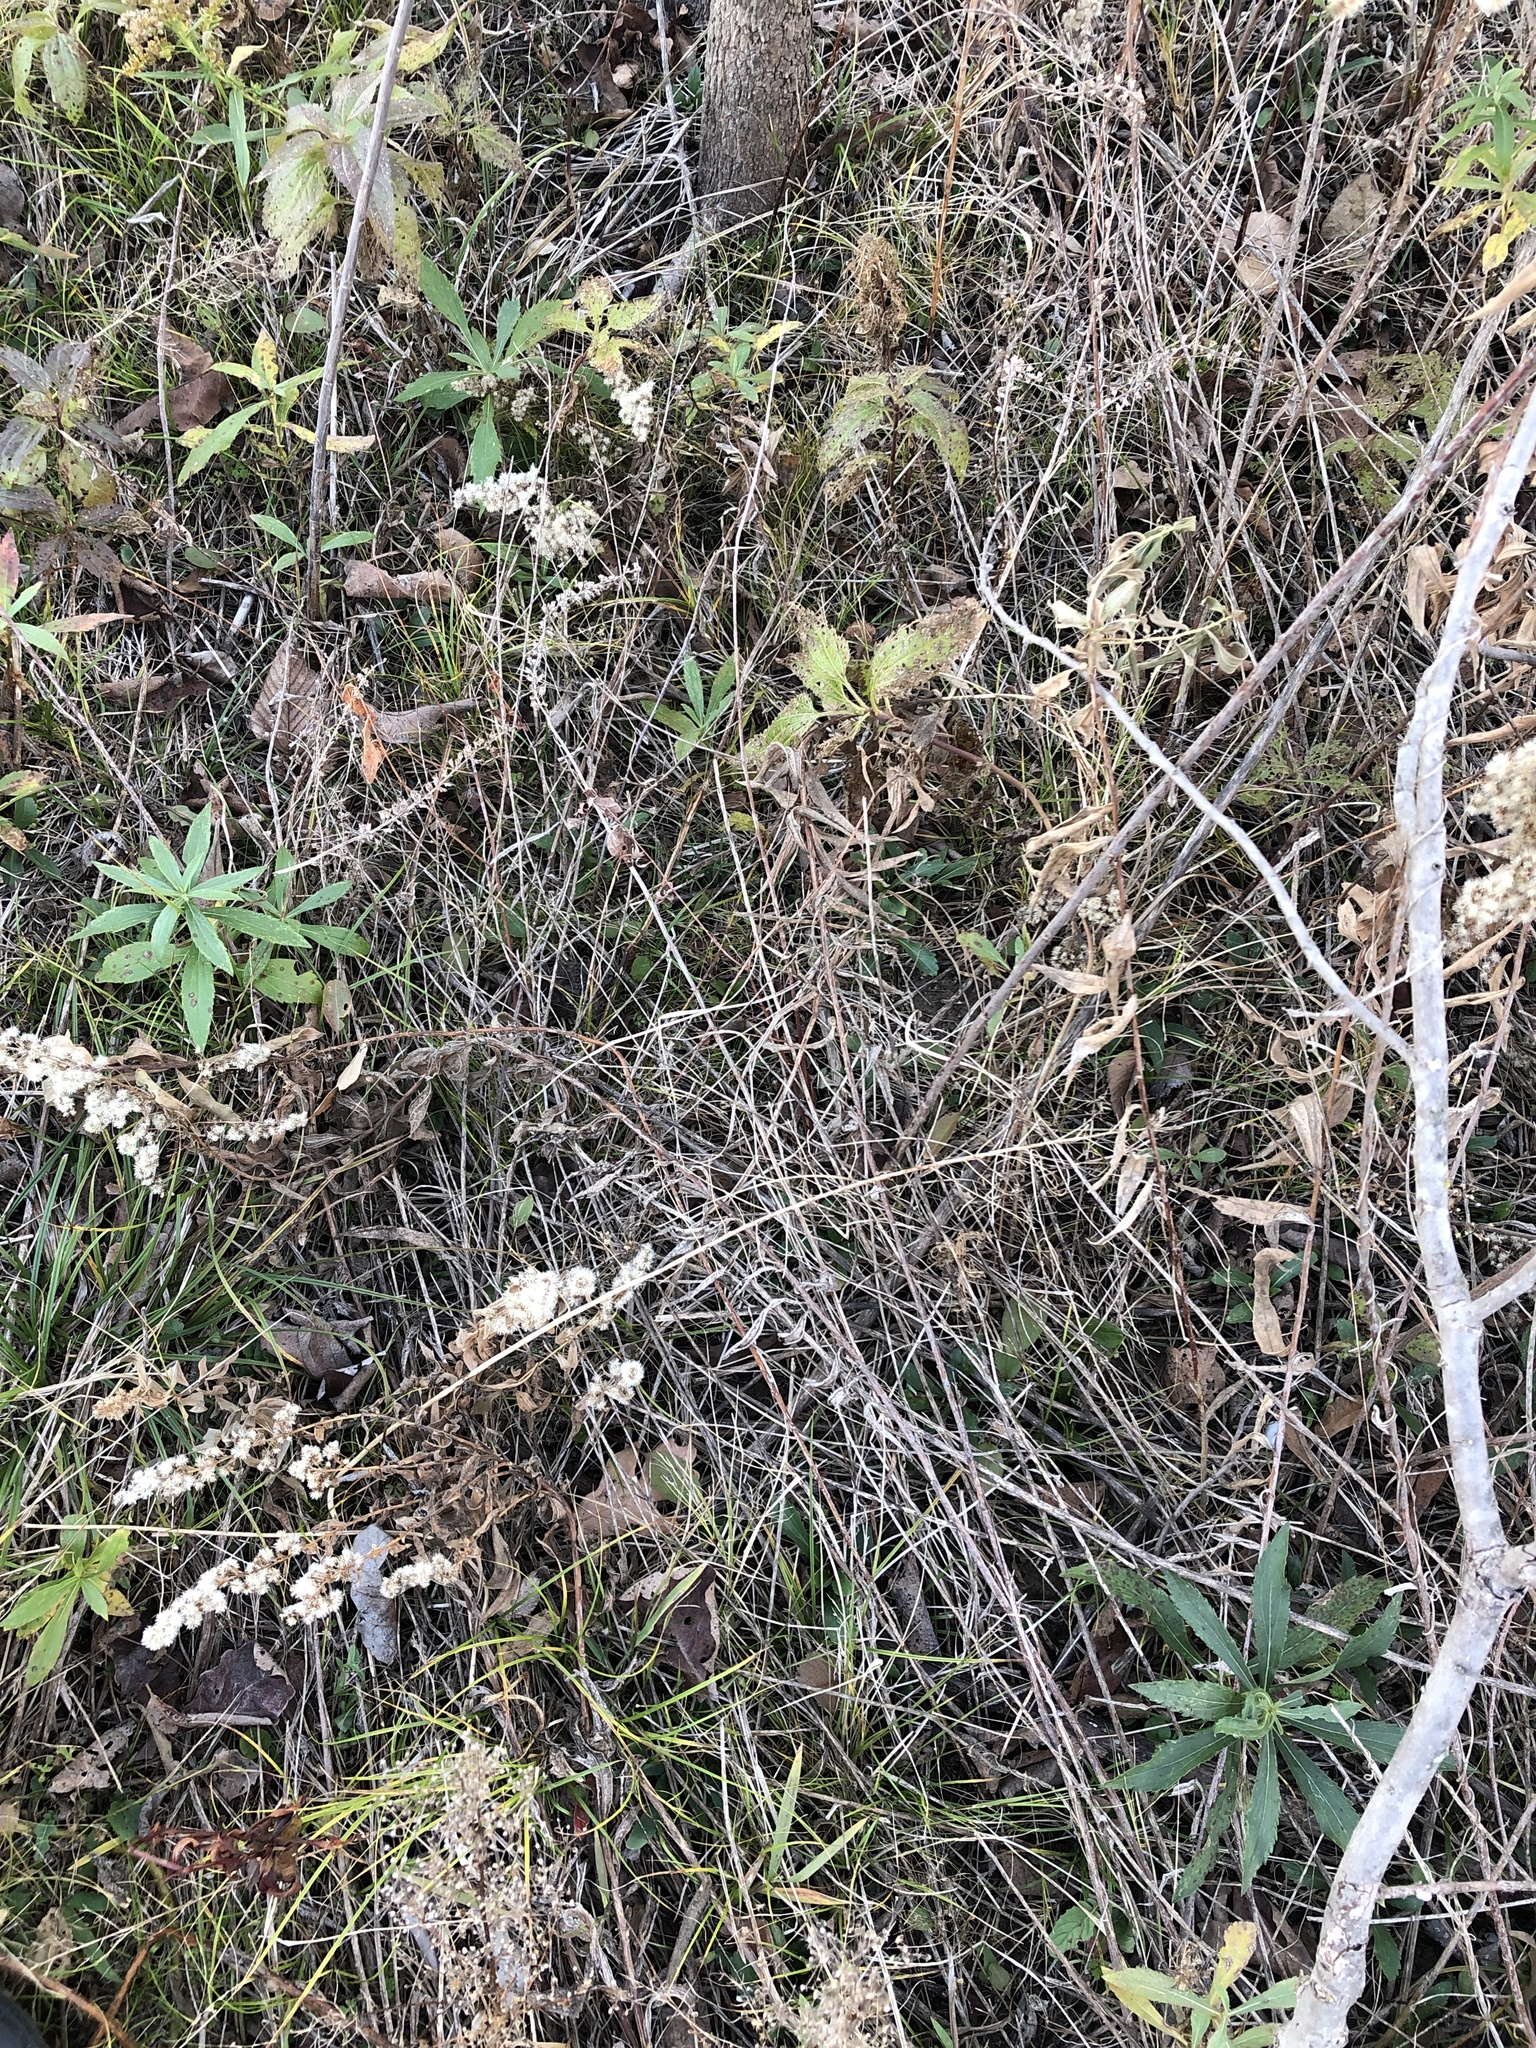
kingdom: Plantae
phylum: Tracheophyta
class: Magnoliopsida
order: Lamiales
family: Lamiaceae
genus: Teucrium
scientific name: Teucrium canadense
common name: American germander
